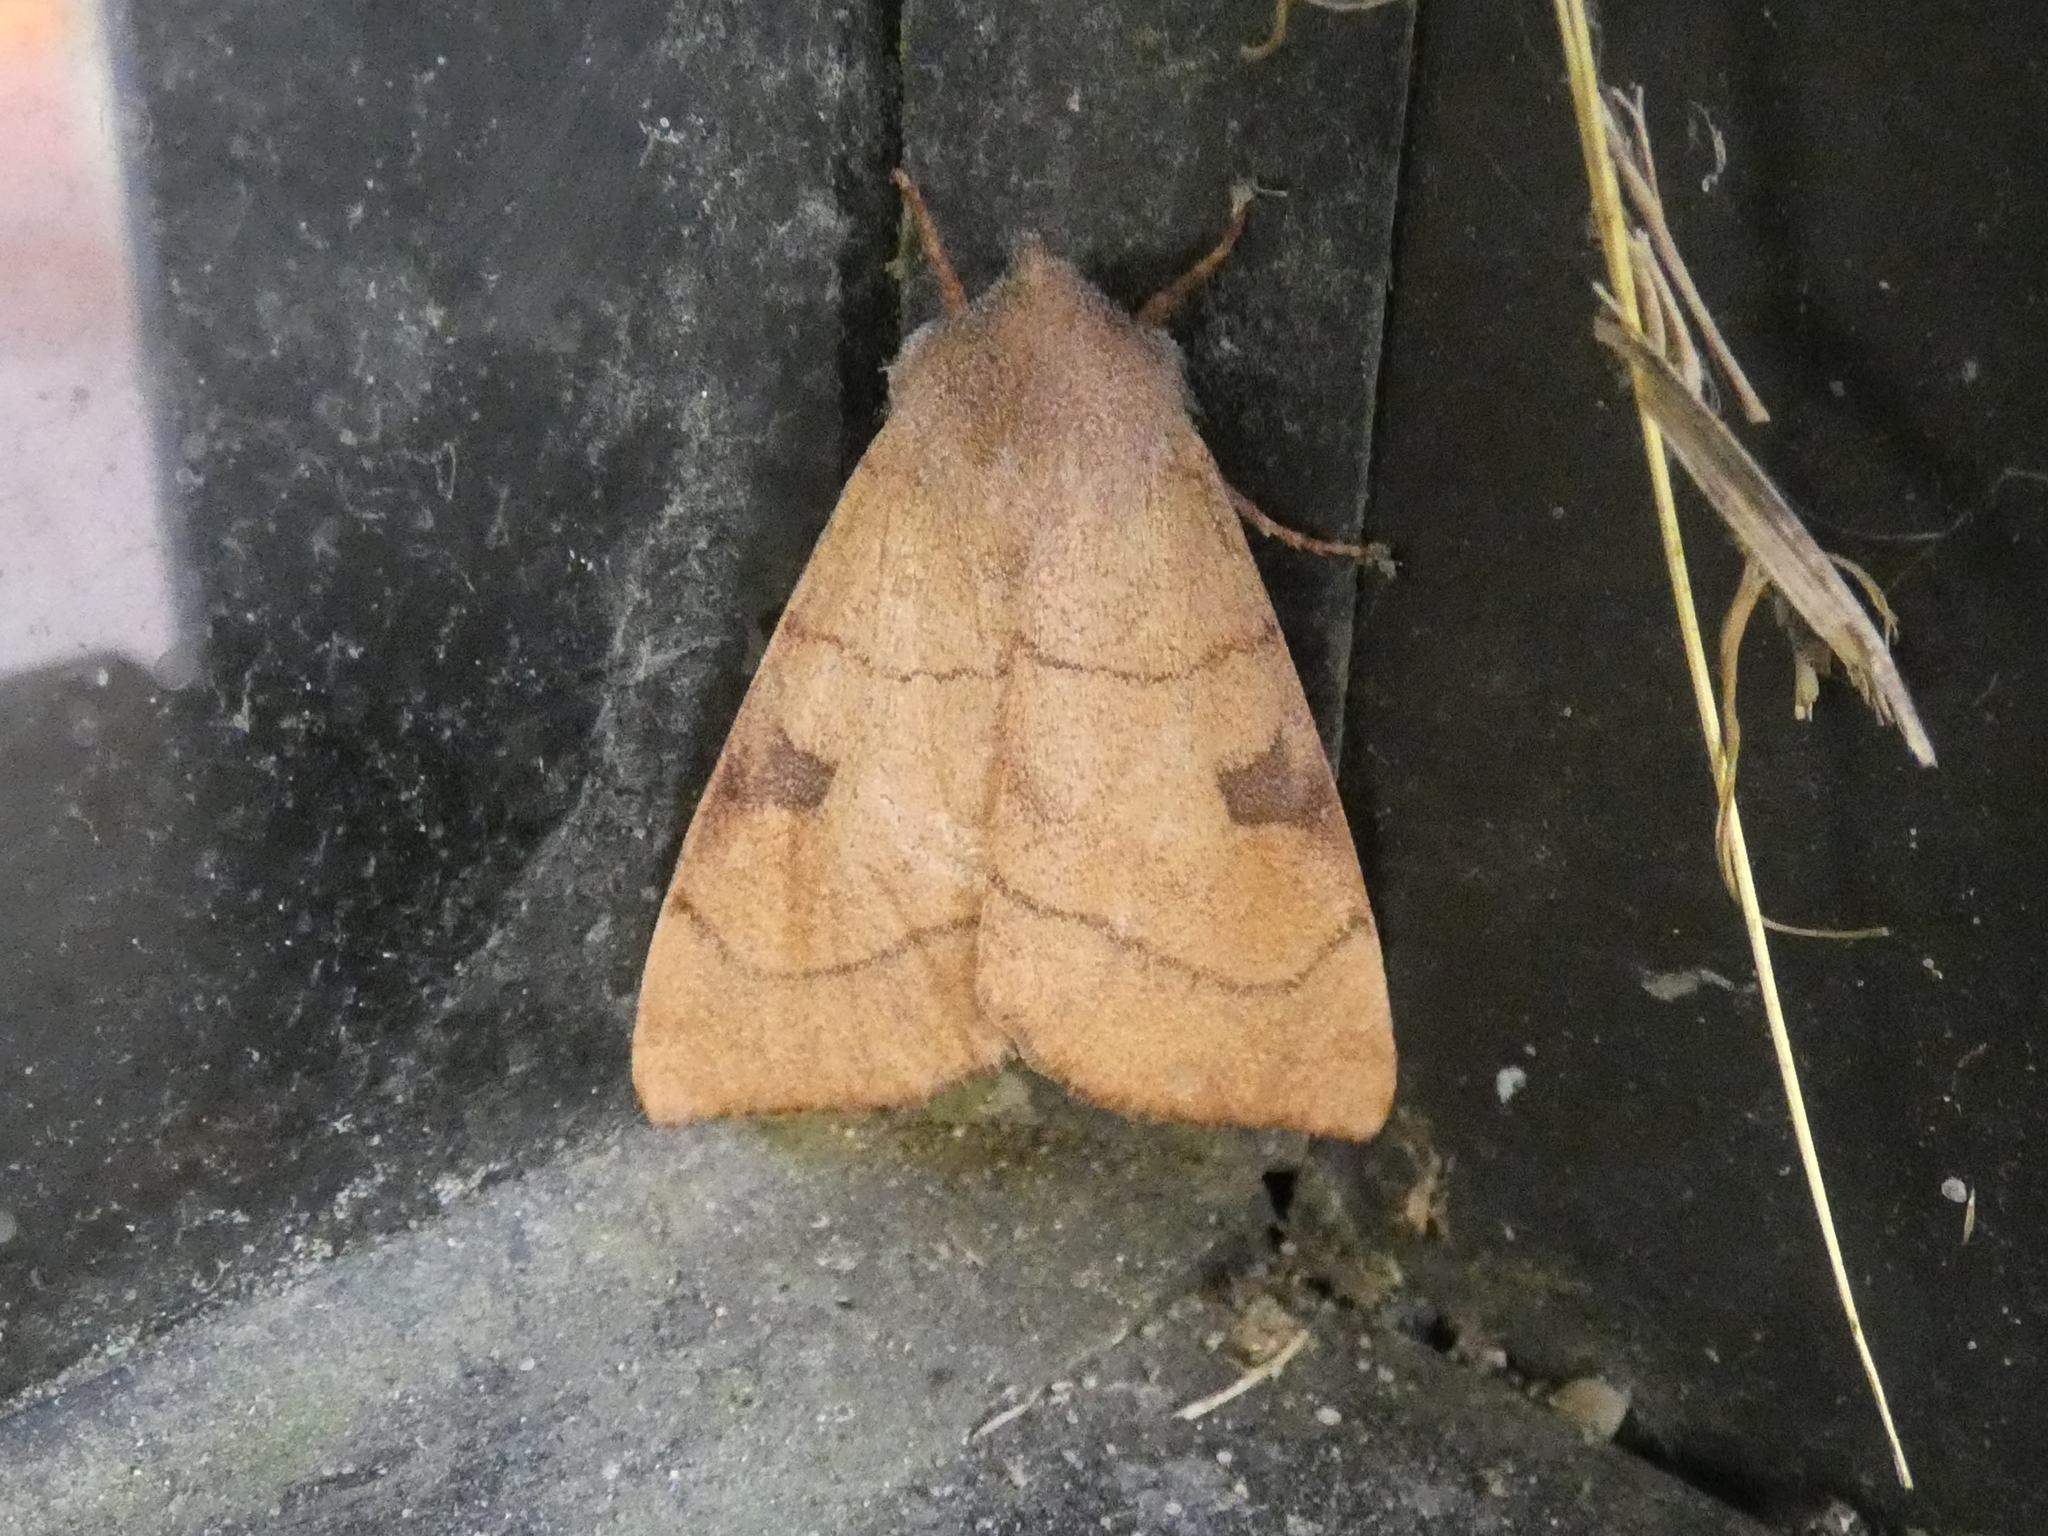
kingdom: Animalia
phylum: Arthropoda
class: Insecta
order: Lepidoptera
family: Noctuidae
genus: Choephora
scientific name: Choephora fungorum
